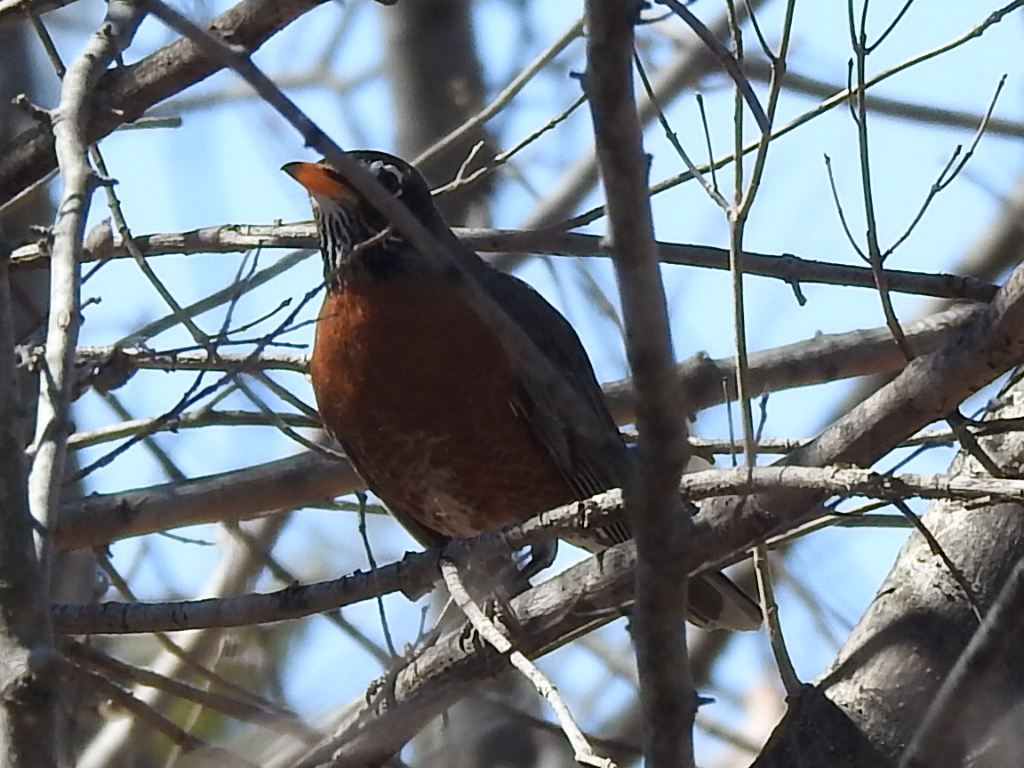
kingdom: Animalia
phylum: Chordata
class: Aves
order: Passeriformes
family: Turdidae
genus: Turdus
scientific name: Turdus migratorius
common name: American robin
